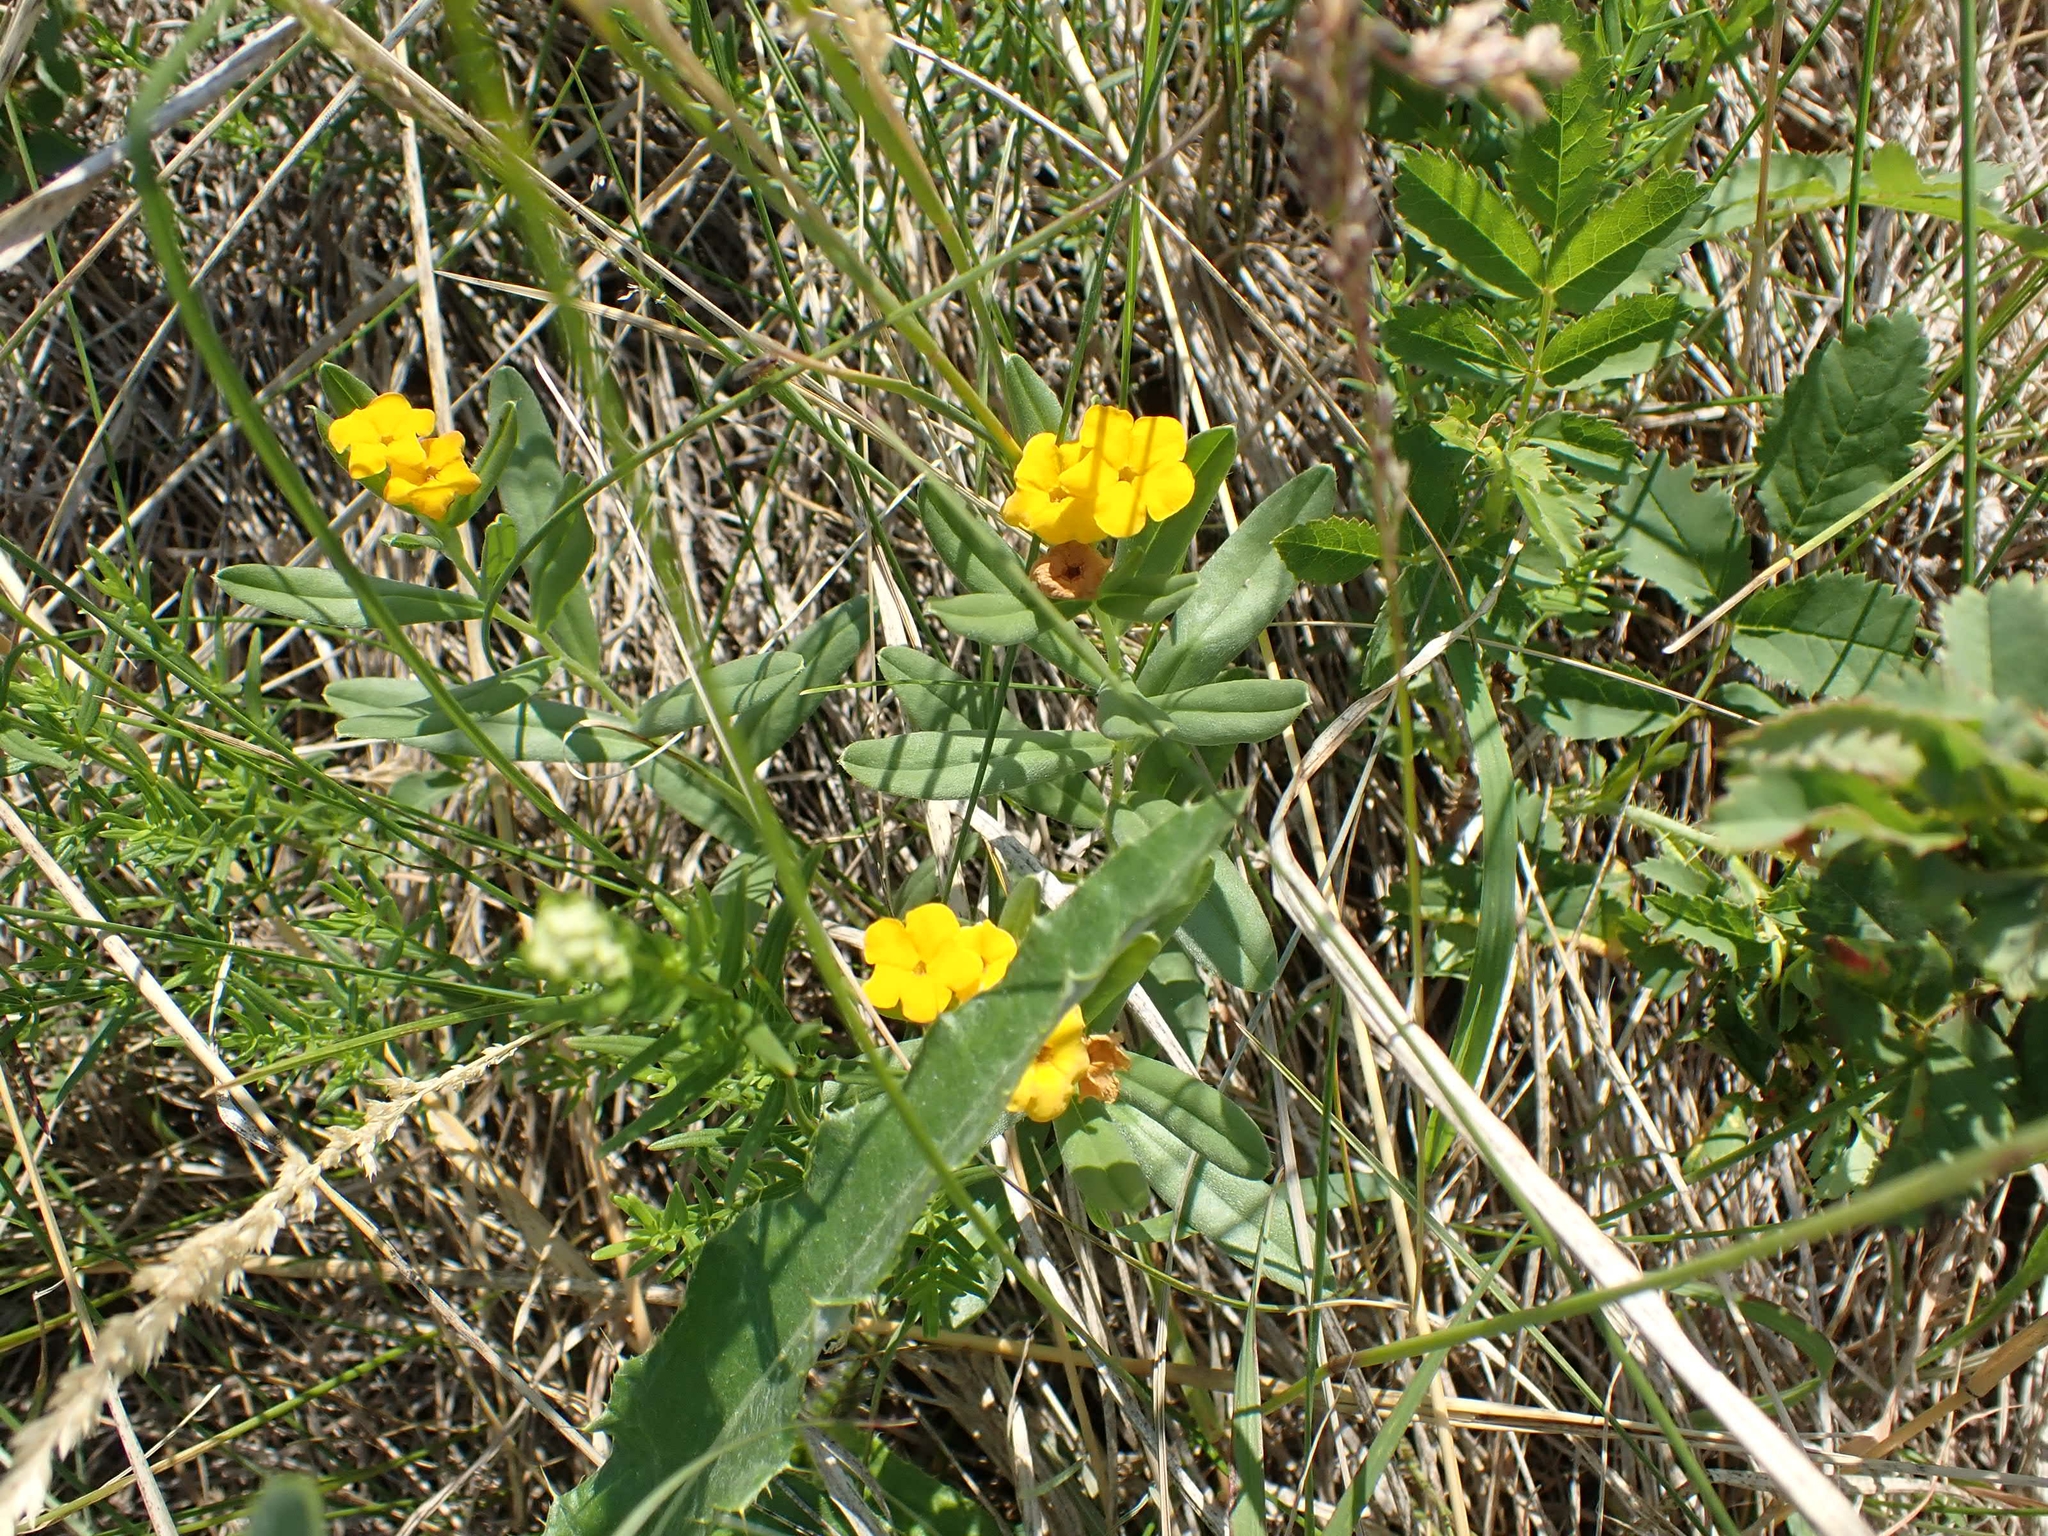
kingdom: Plantae
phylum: Tracheophyta
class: Magnoliopsida
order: Boraginales
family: Boraginaceae
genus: Lithospermum
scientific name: Lithospermum canescens
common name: Hoary puccoon
